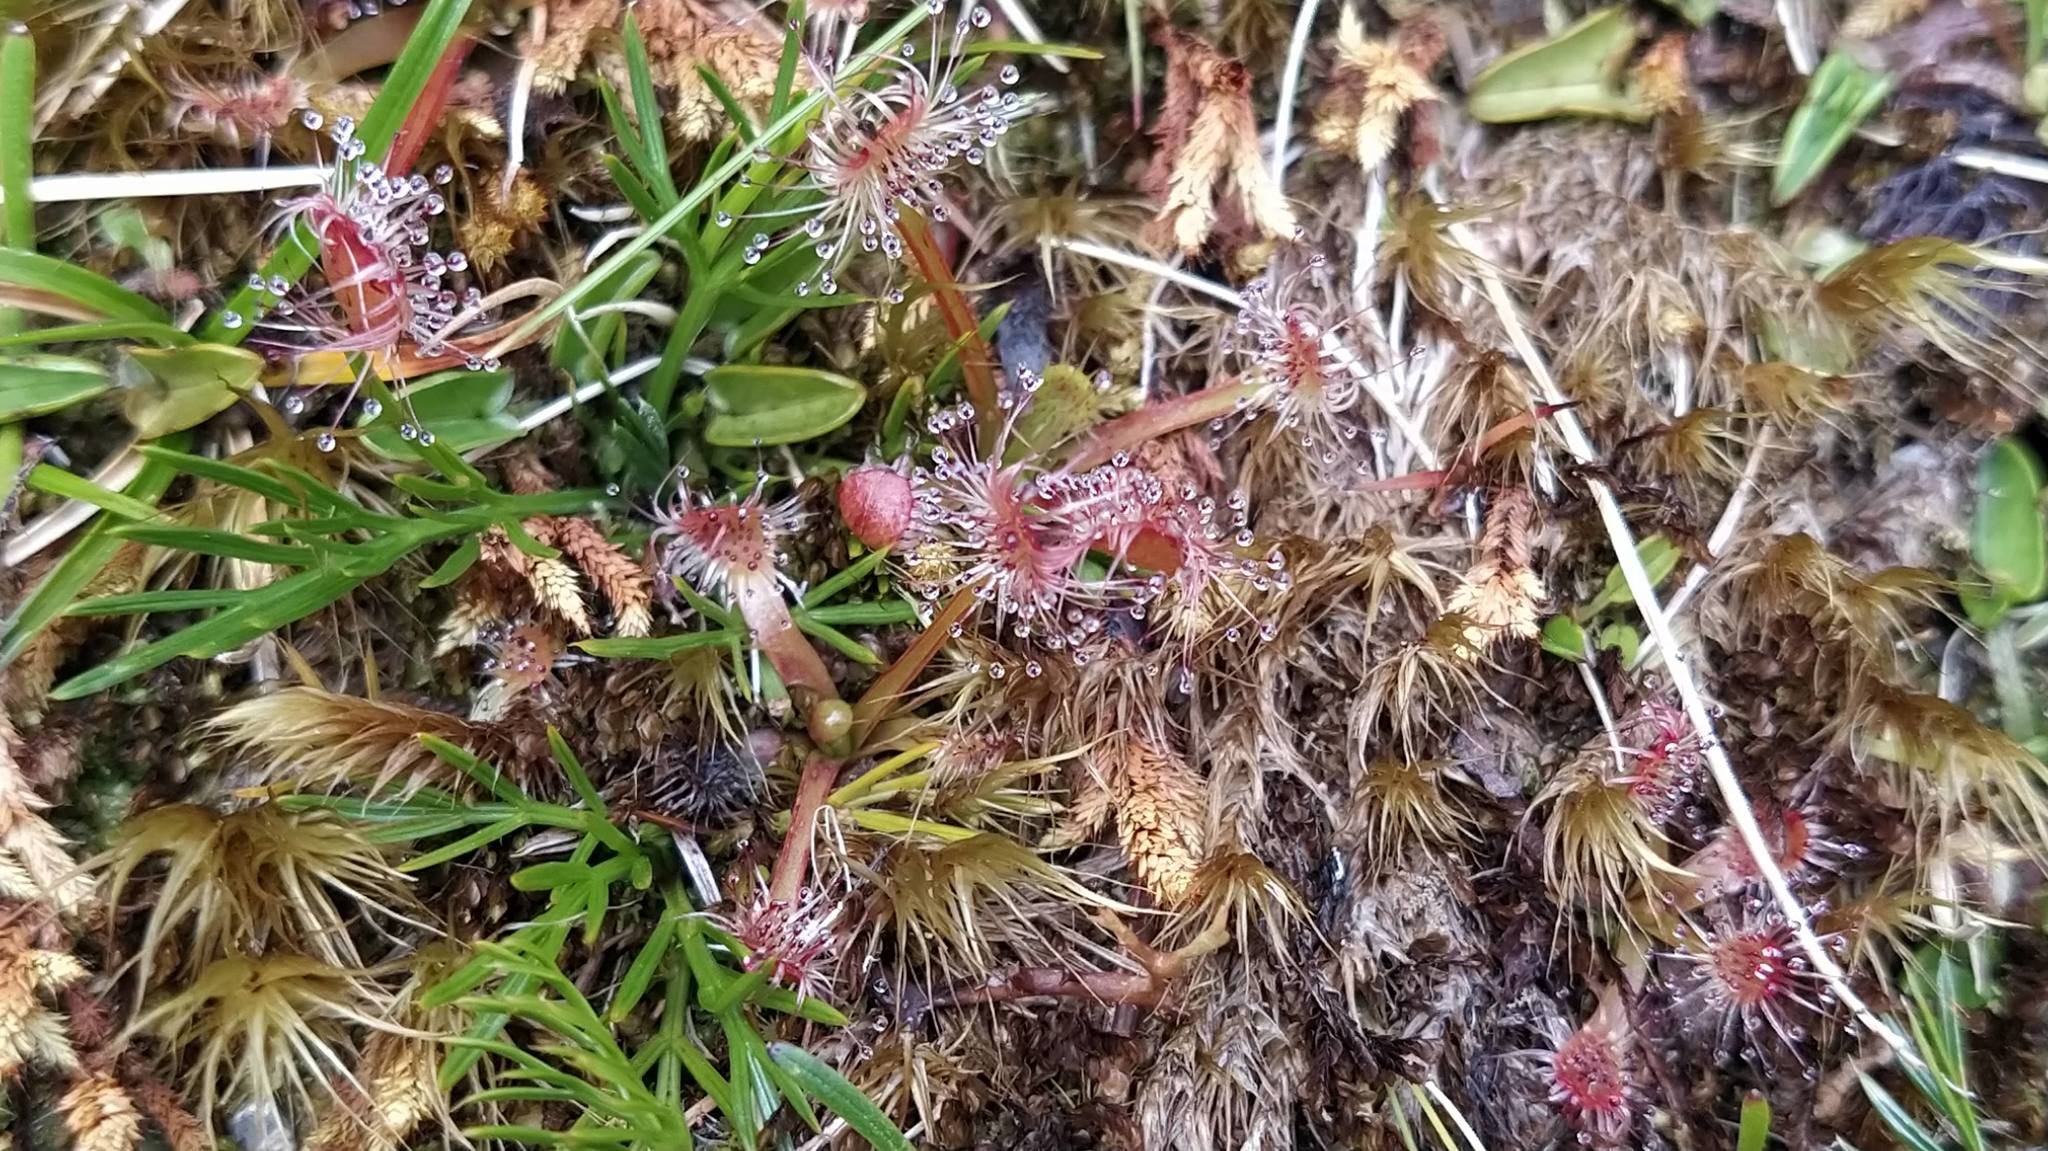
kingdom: Plantae
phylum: Tracheophyta
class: Magnoliopsida
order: Caryophyllales
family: Droseraceae
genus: Drosera
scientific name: Drosera stenopetala
